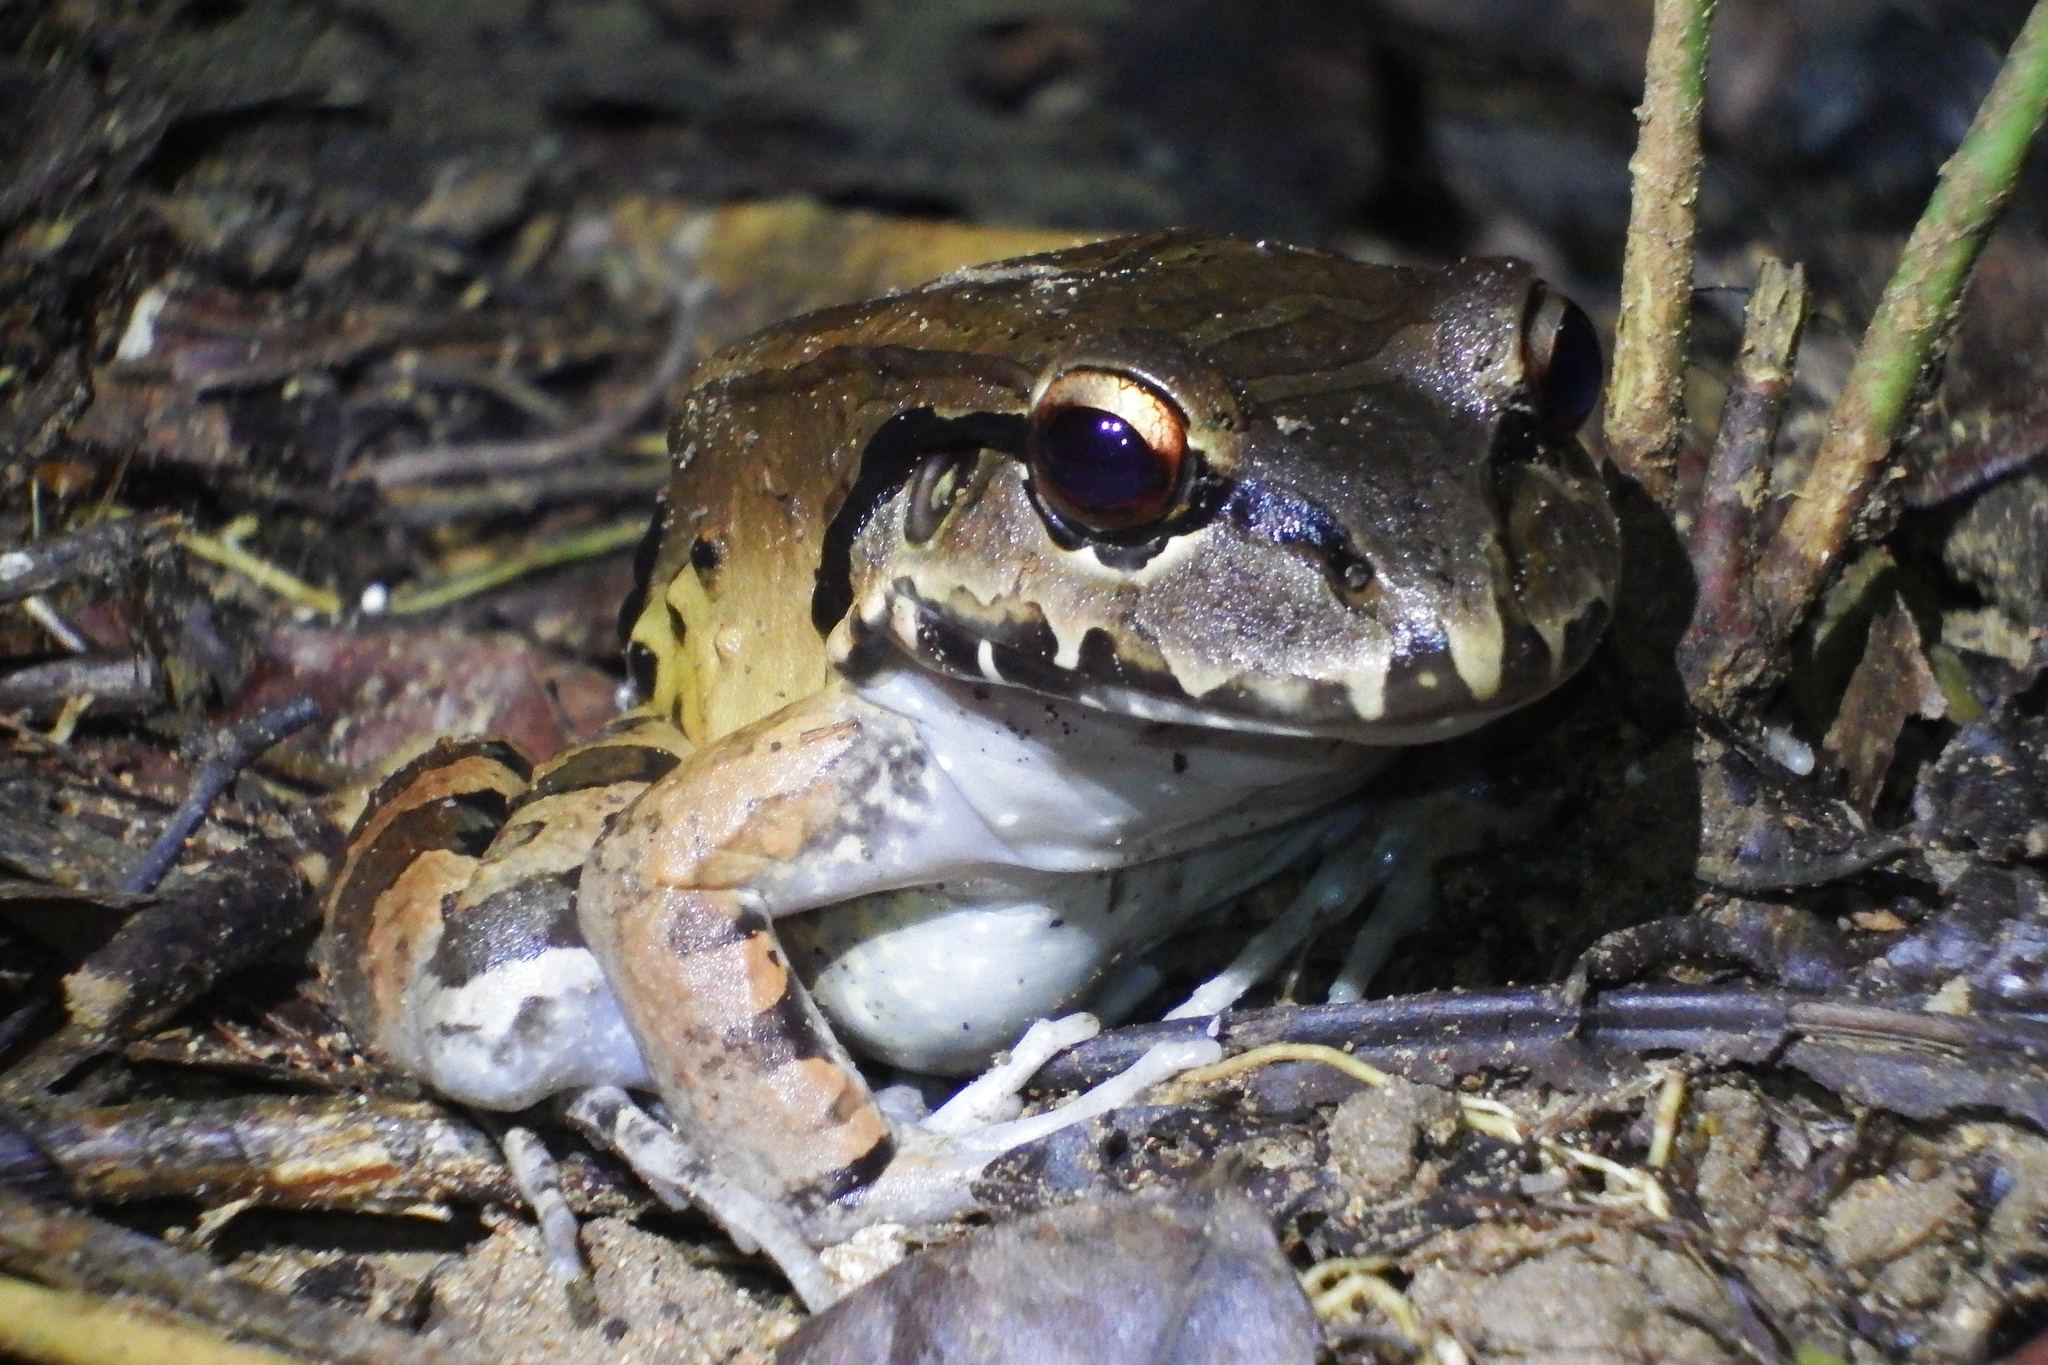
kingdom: Animalia
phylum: Chordata
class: Amphibia
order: Anura
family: Leptodactylidae
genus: Leptodactylus
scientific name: Leptodactylus savagei
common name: Savage's thin-toed frog
